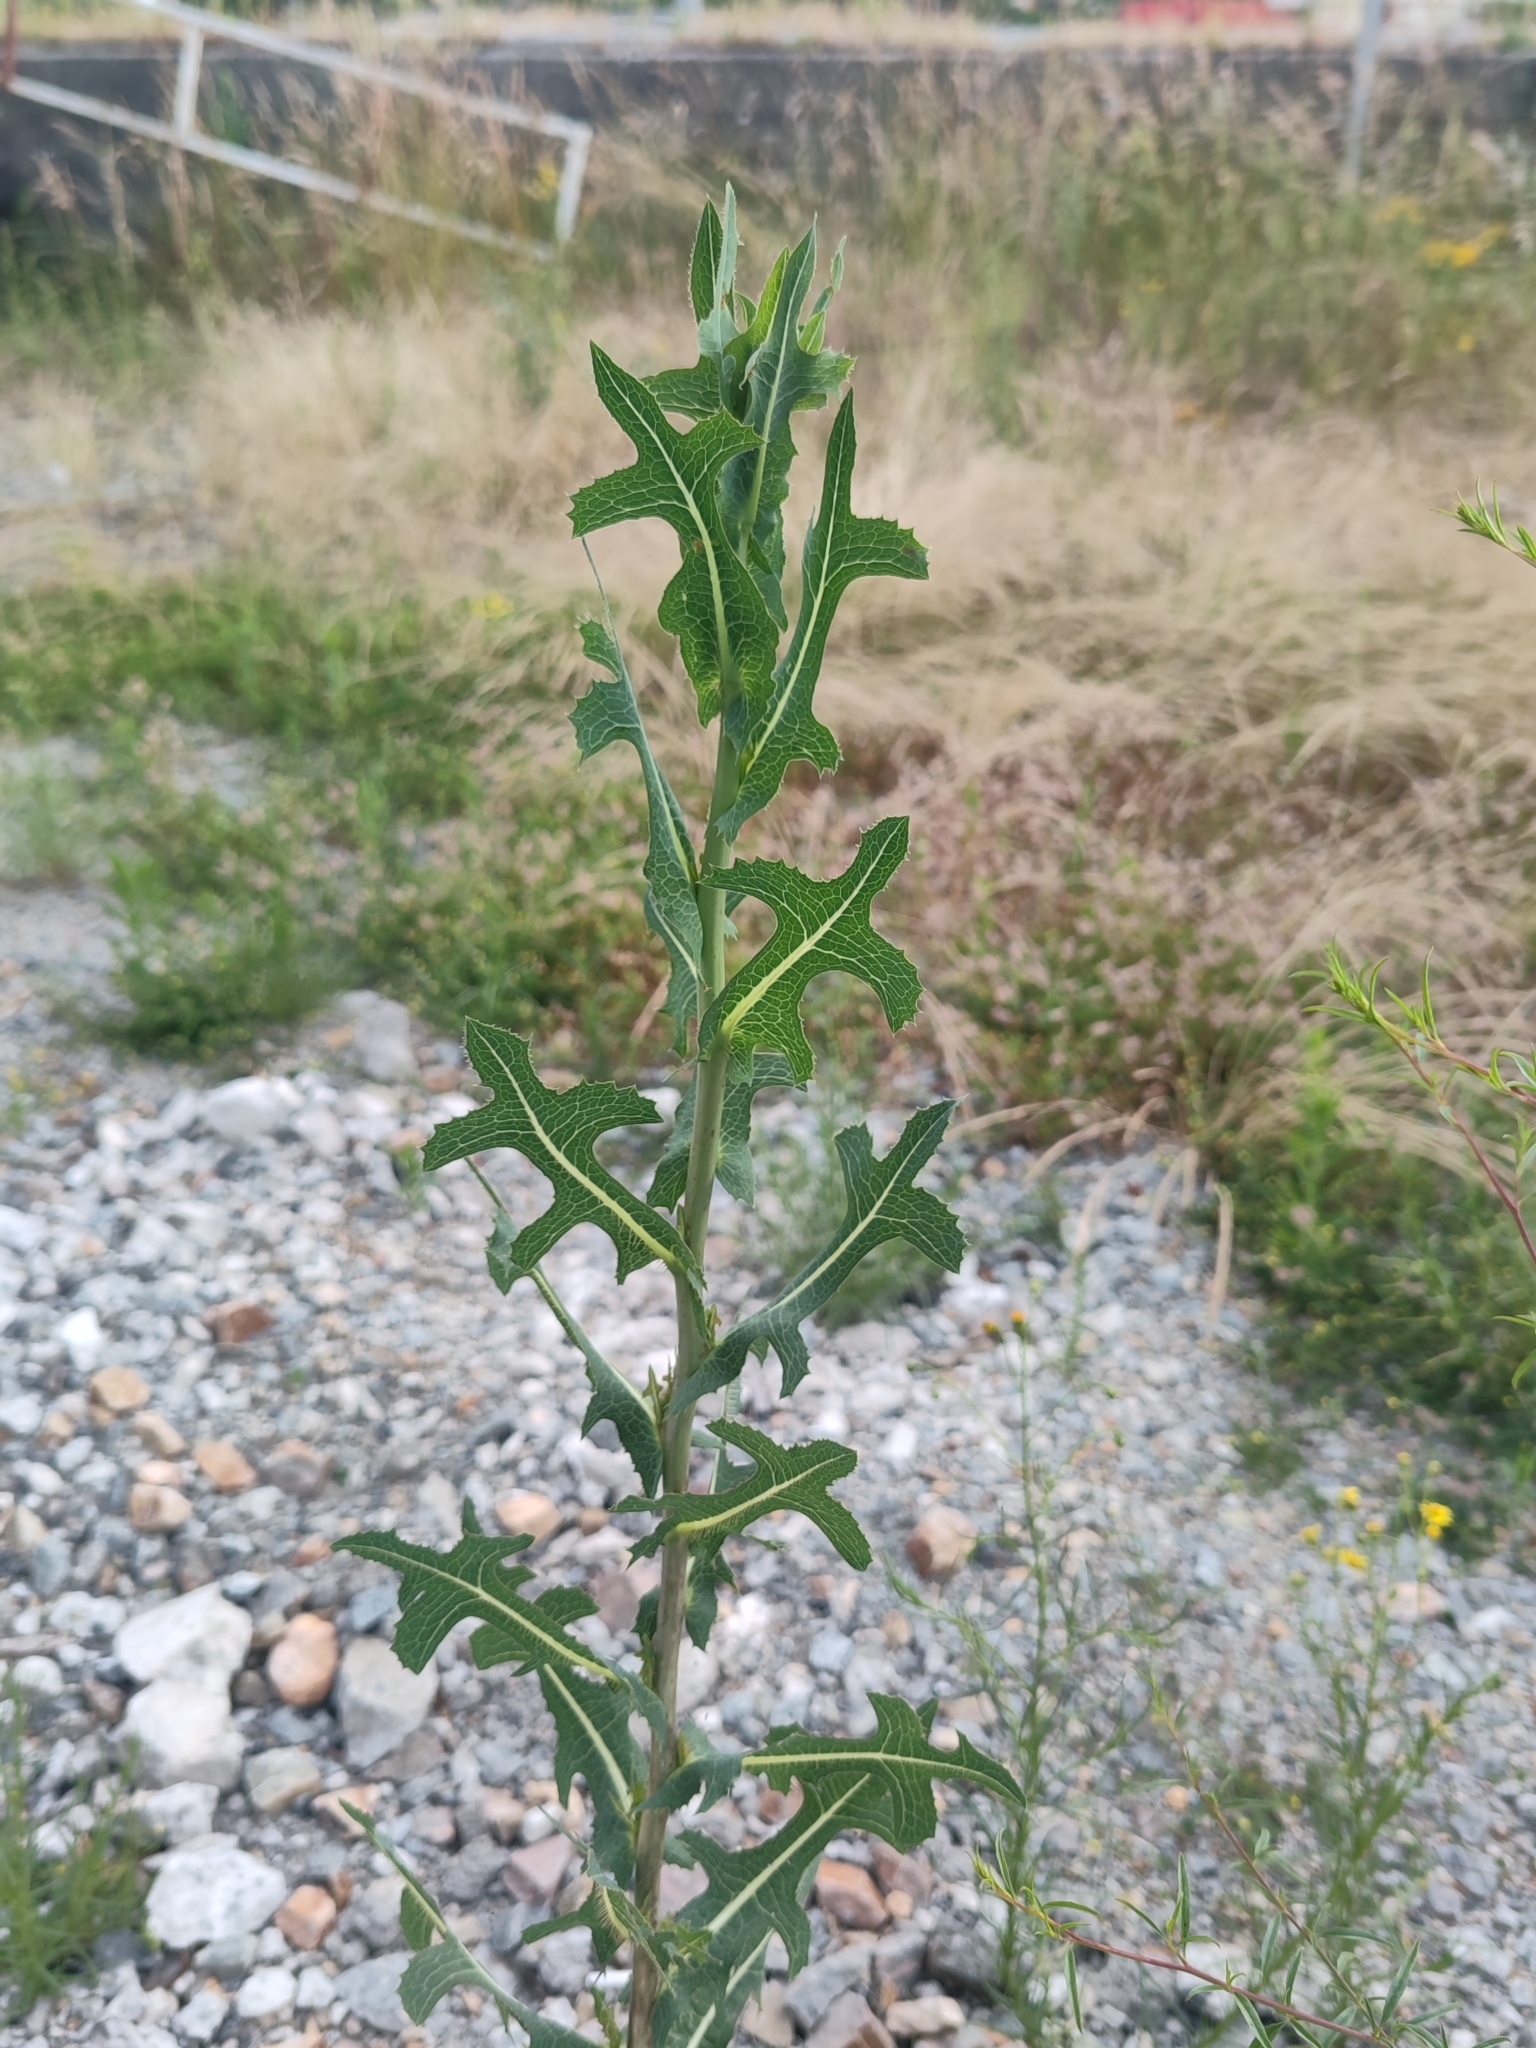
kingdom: Plantae
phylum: Tracheophyta
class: Magnoliopsida
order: Asterales
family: Asteraceae
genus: Lactuca
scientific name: Lactuca serriola
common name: Prickly lettuce
